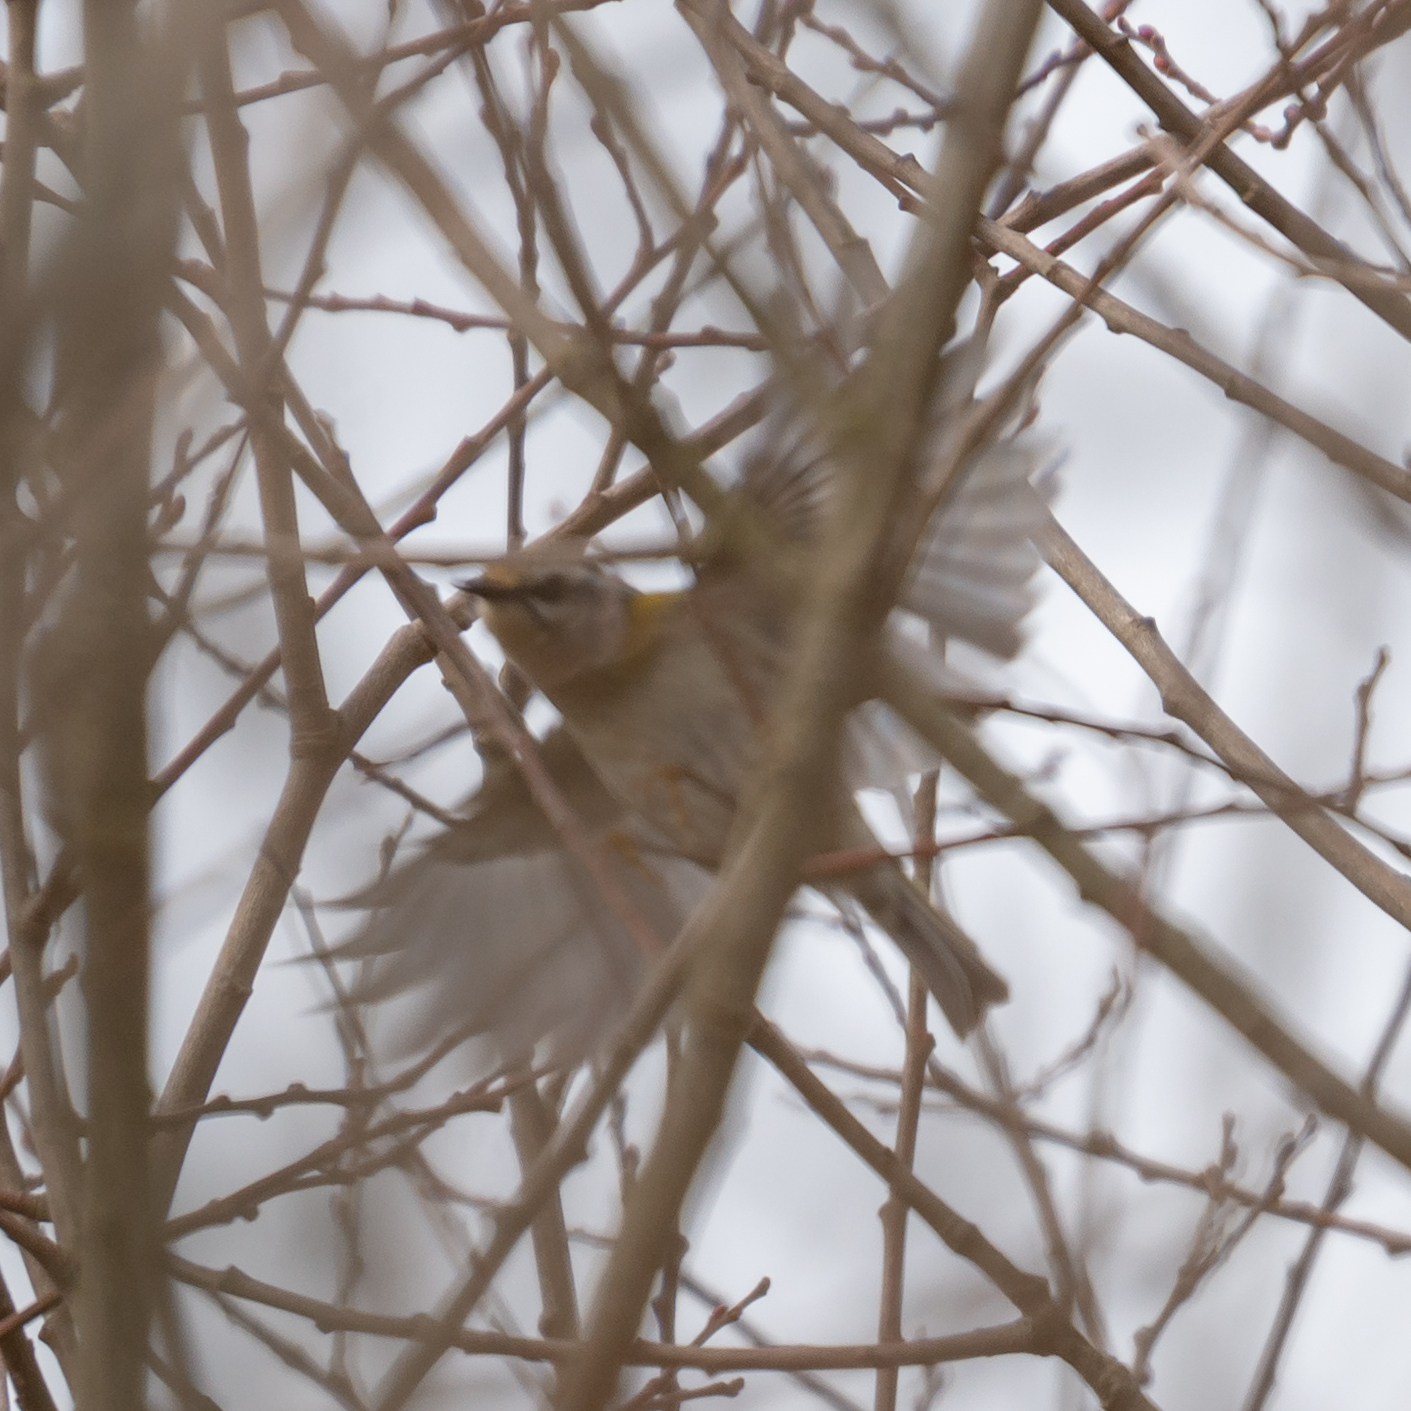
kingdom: Animalia
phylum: Chordata
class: Aves
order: Passeriformes
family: Regulidae
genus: Regulus
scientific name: Regulus ignicapilla
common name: Firecrest
